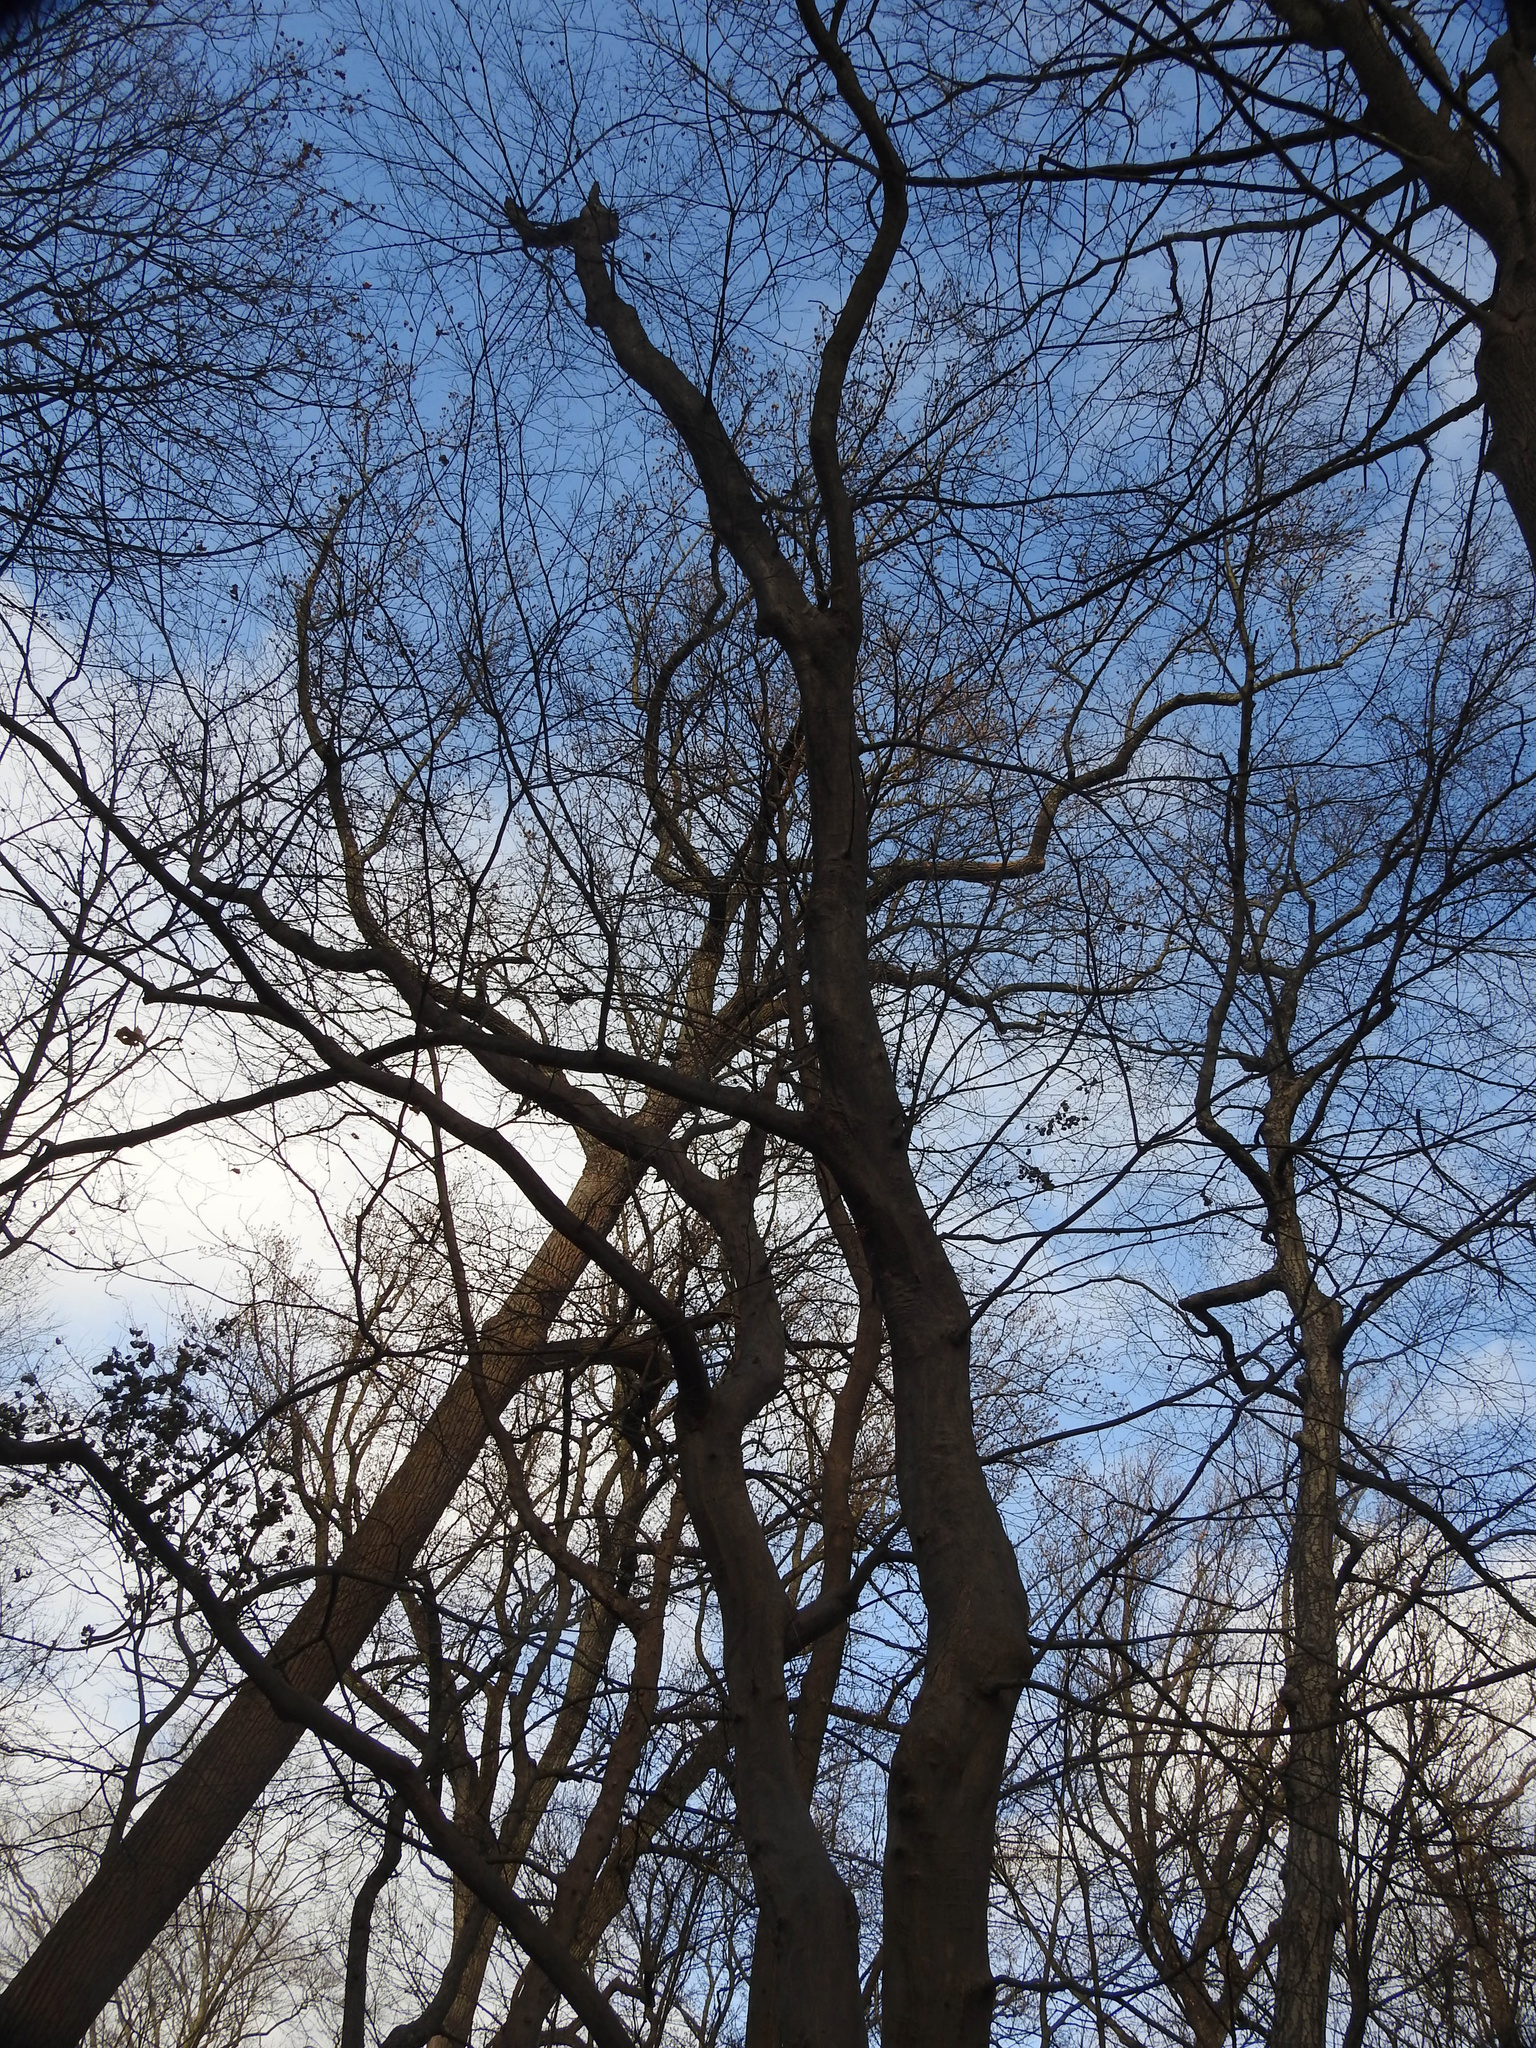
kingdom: Plantae
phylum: Tracheophyta
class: Magnoliopsida
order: Fagales
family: Betulaceae
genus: Carpinus
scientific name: Carpinus caroliniana
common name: American hornbeam
